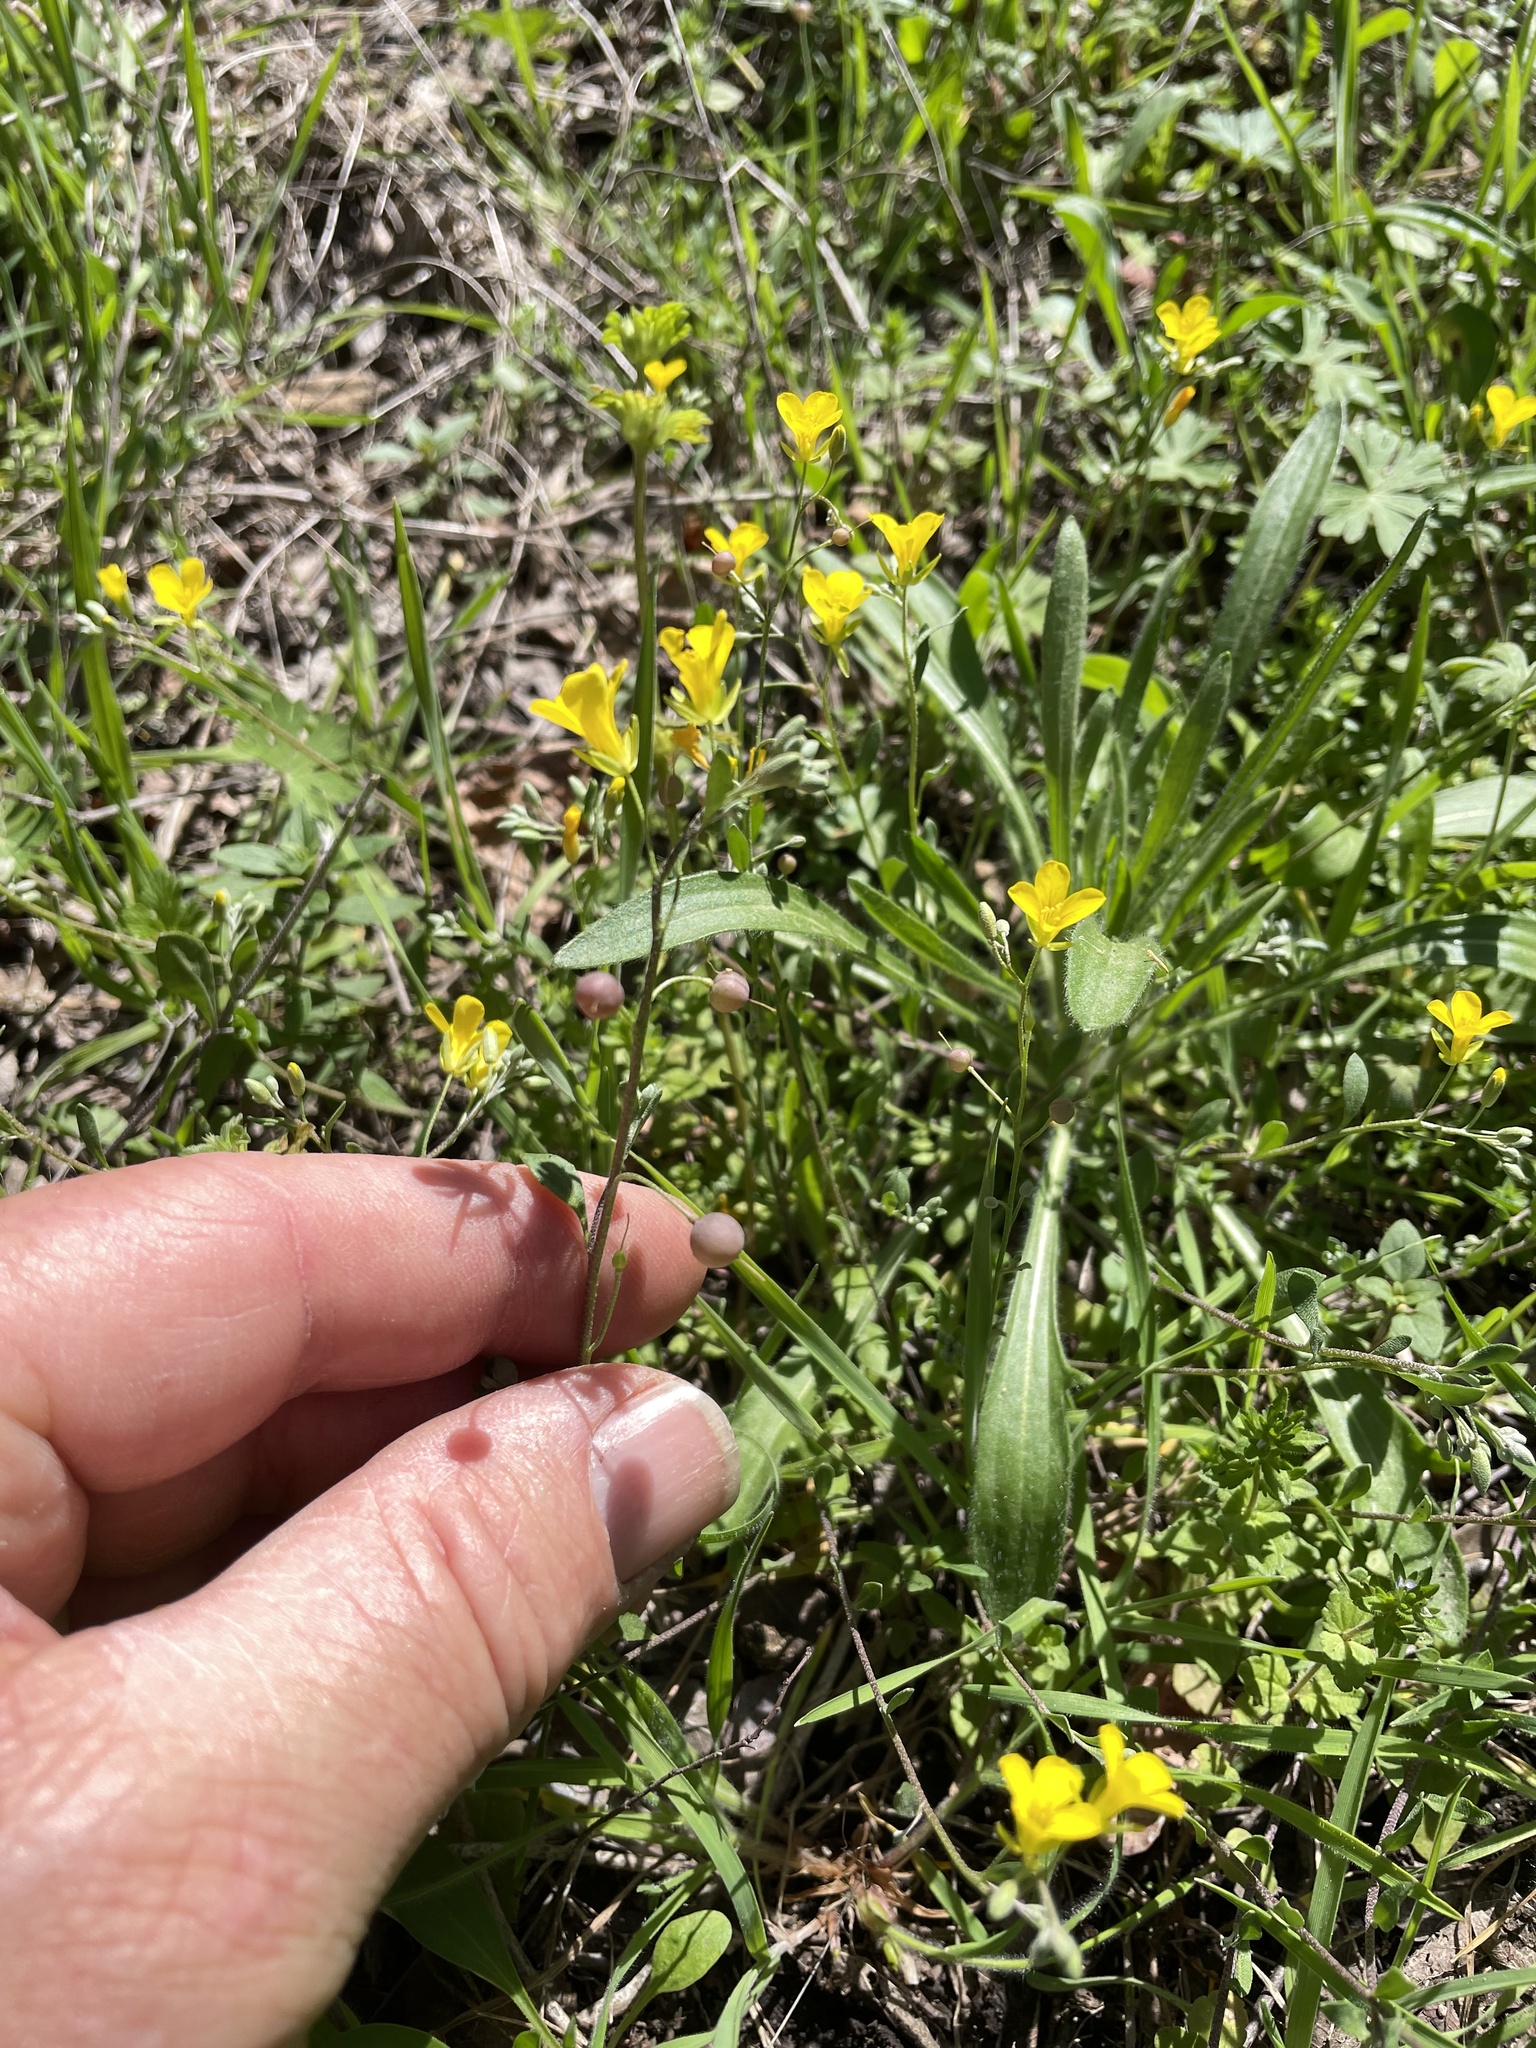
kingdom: Plantae
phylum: Tracheophyta
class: Magnoliopsida
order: Brassicales
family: Brassicaceae
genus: Physaria
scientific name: Physaria recurvata
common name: Gaslight bladderpod
